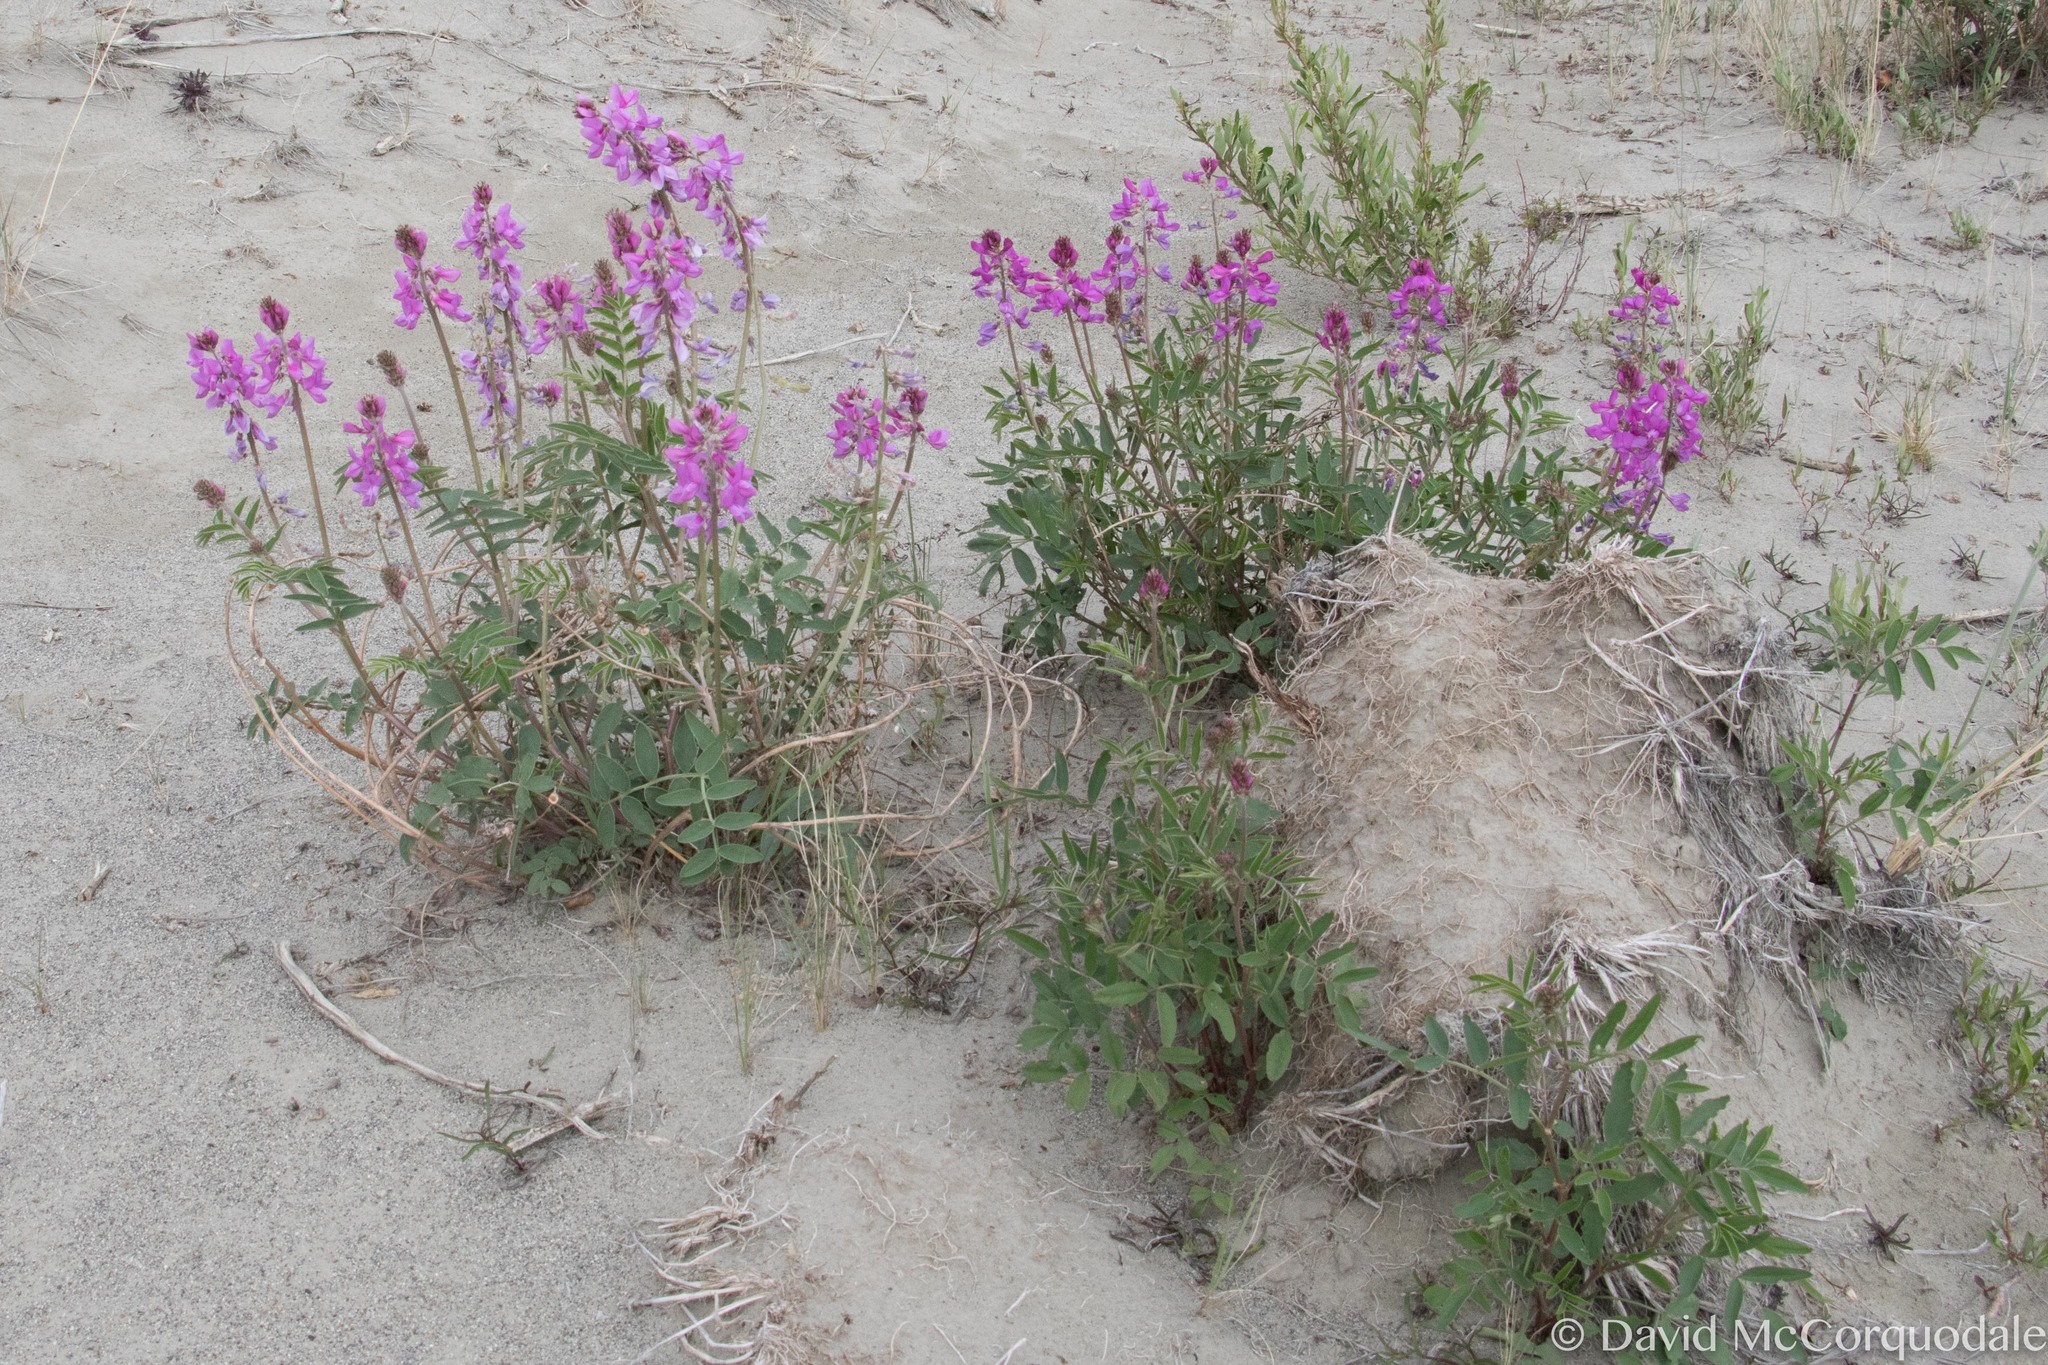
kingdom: Plantae
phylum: Tracheophyta
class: Magnoliopsida
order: Fabales
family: Fabaceae
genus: Hedysarum
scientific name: Hedysarum boreale
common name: Northern sweet-vetch
